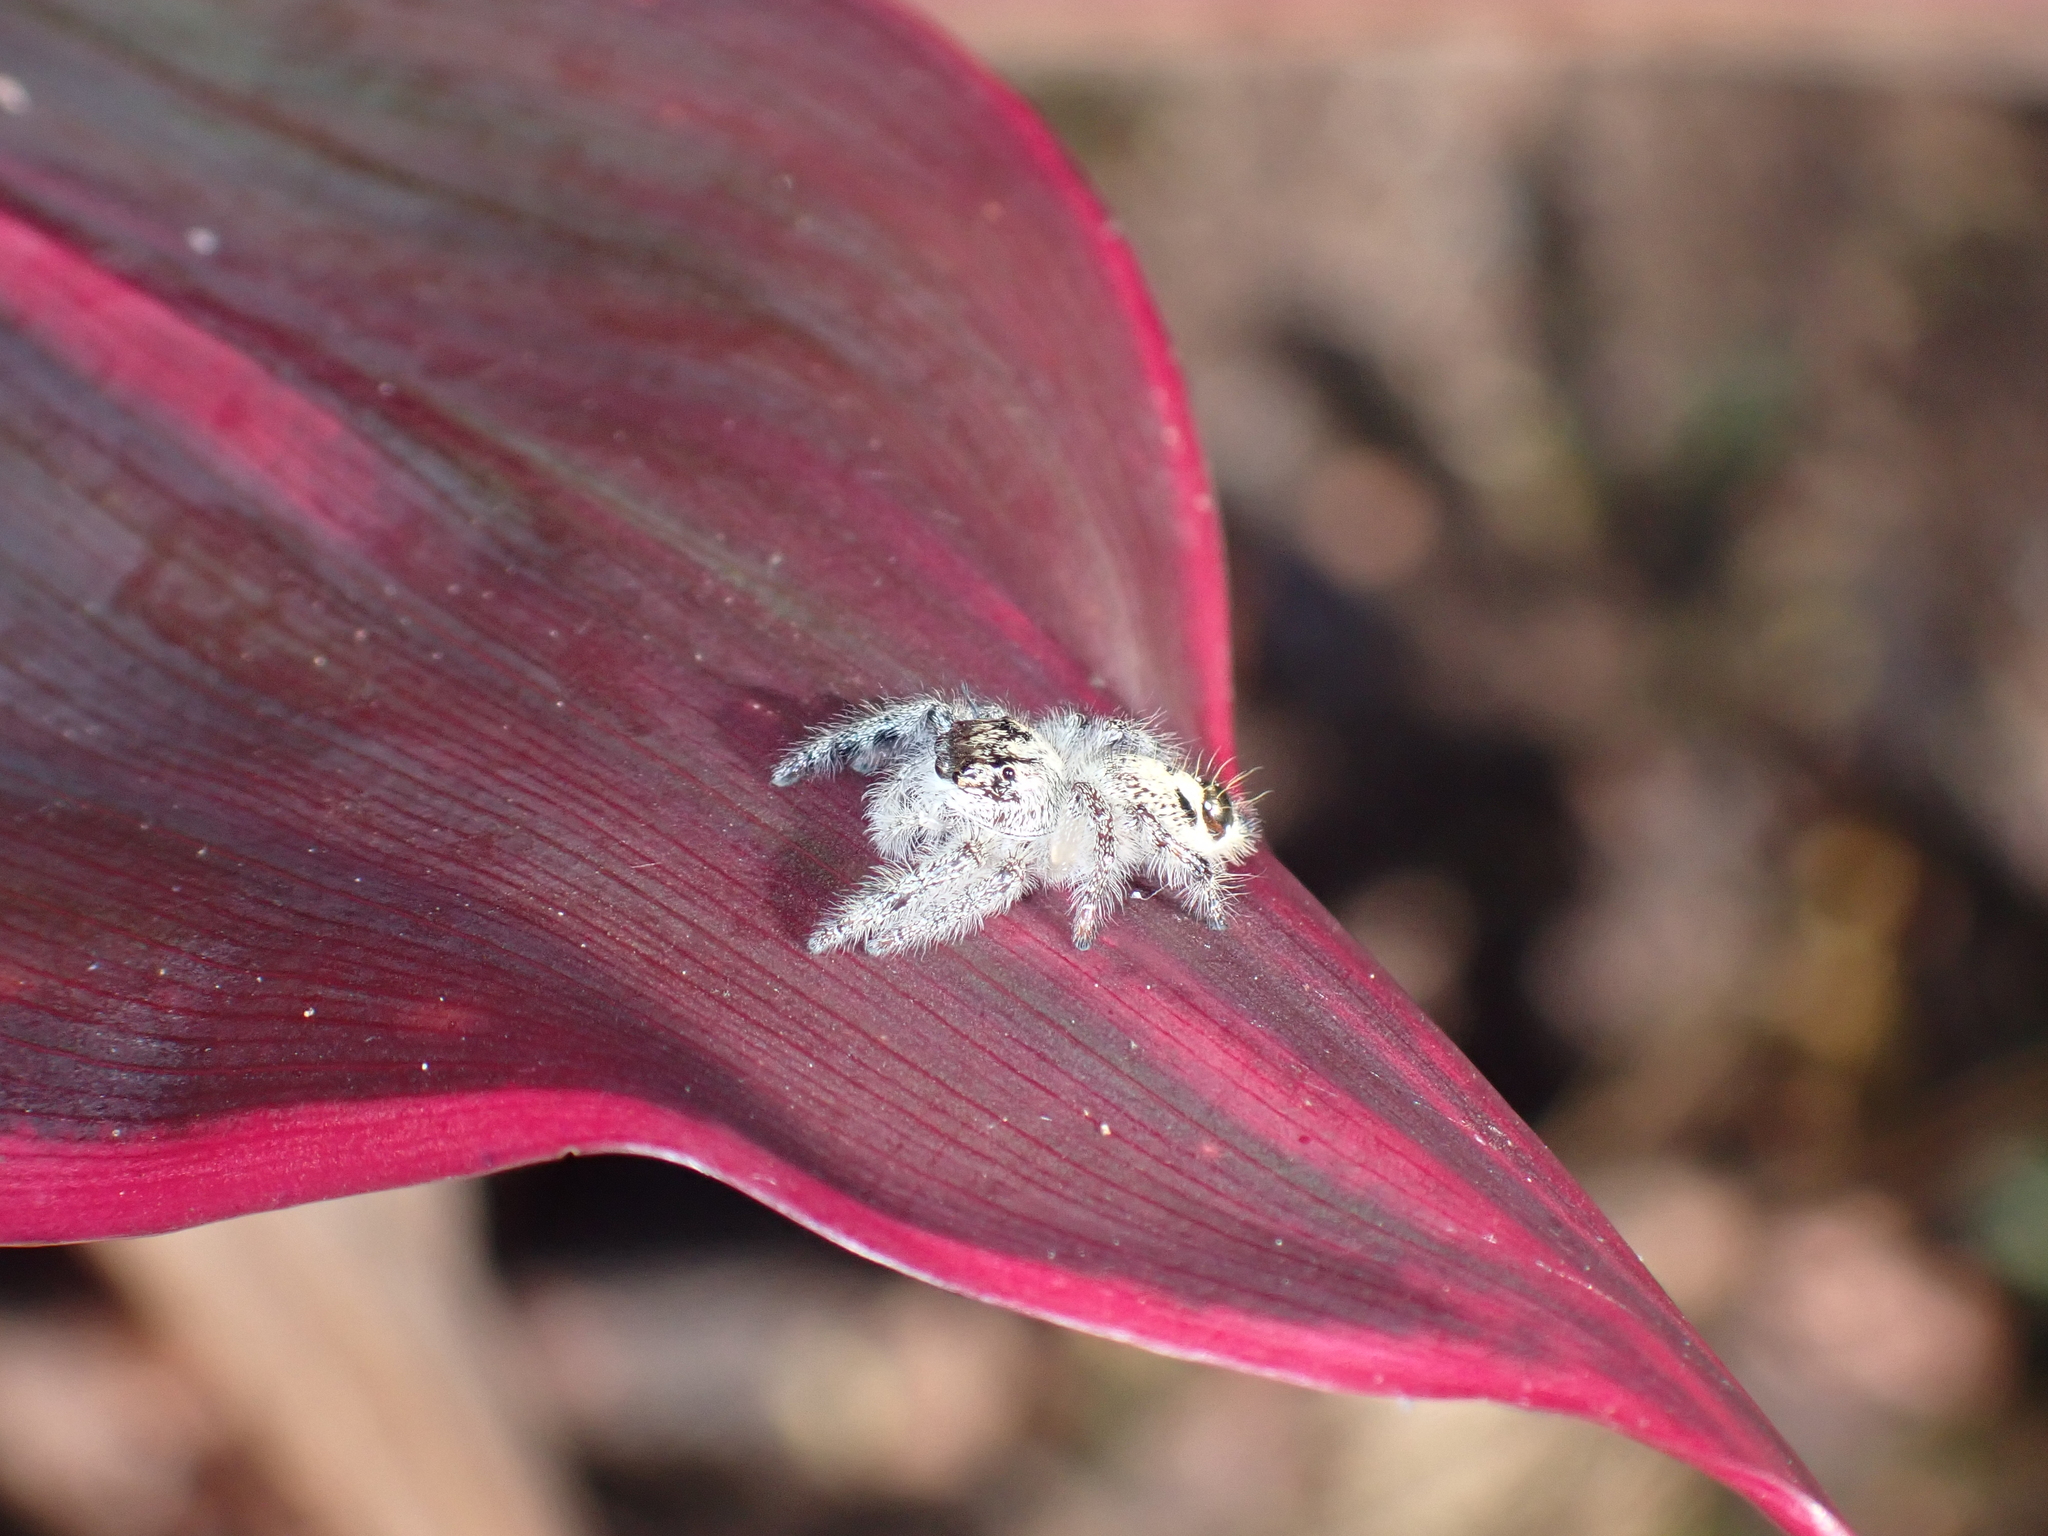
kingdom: Animalia
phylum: Arthropoda
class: Arachnida
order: Araneae
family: Salticidae
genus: Hyllus
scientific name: Hyllus diardi
